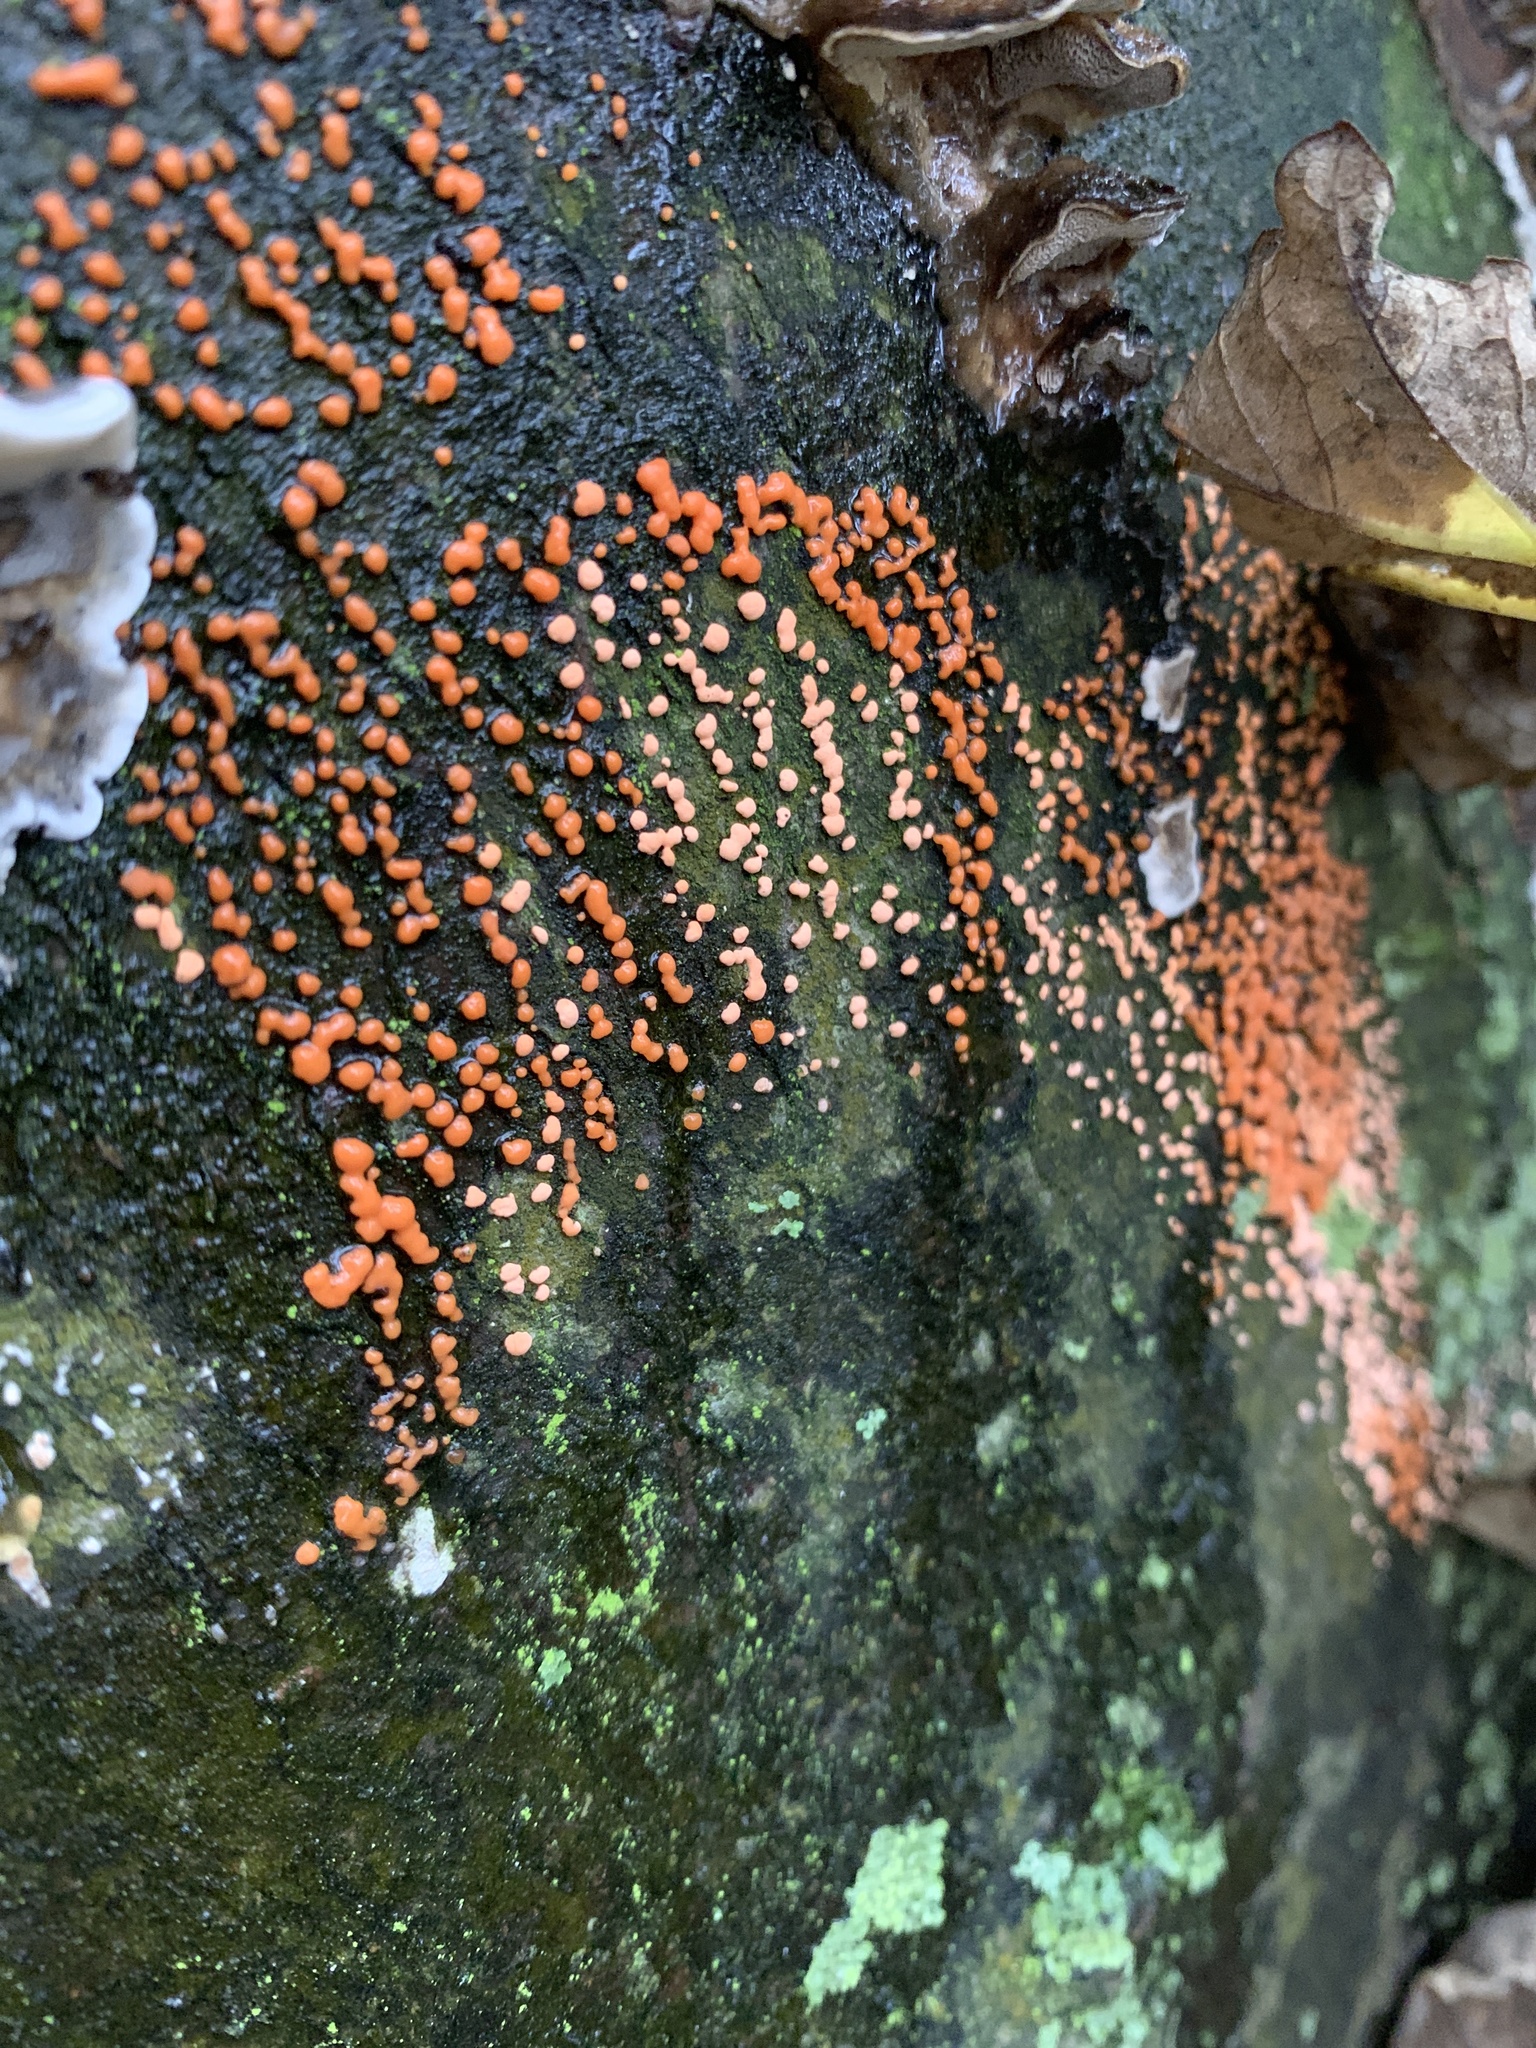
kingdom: Fungi
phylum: Ascomycota
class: Sordariomycetes
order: Hypocreales
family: Nectriaceae
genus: Nectria
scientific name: Nectria cinnabarina
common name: Coral spot
